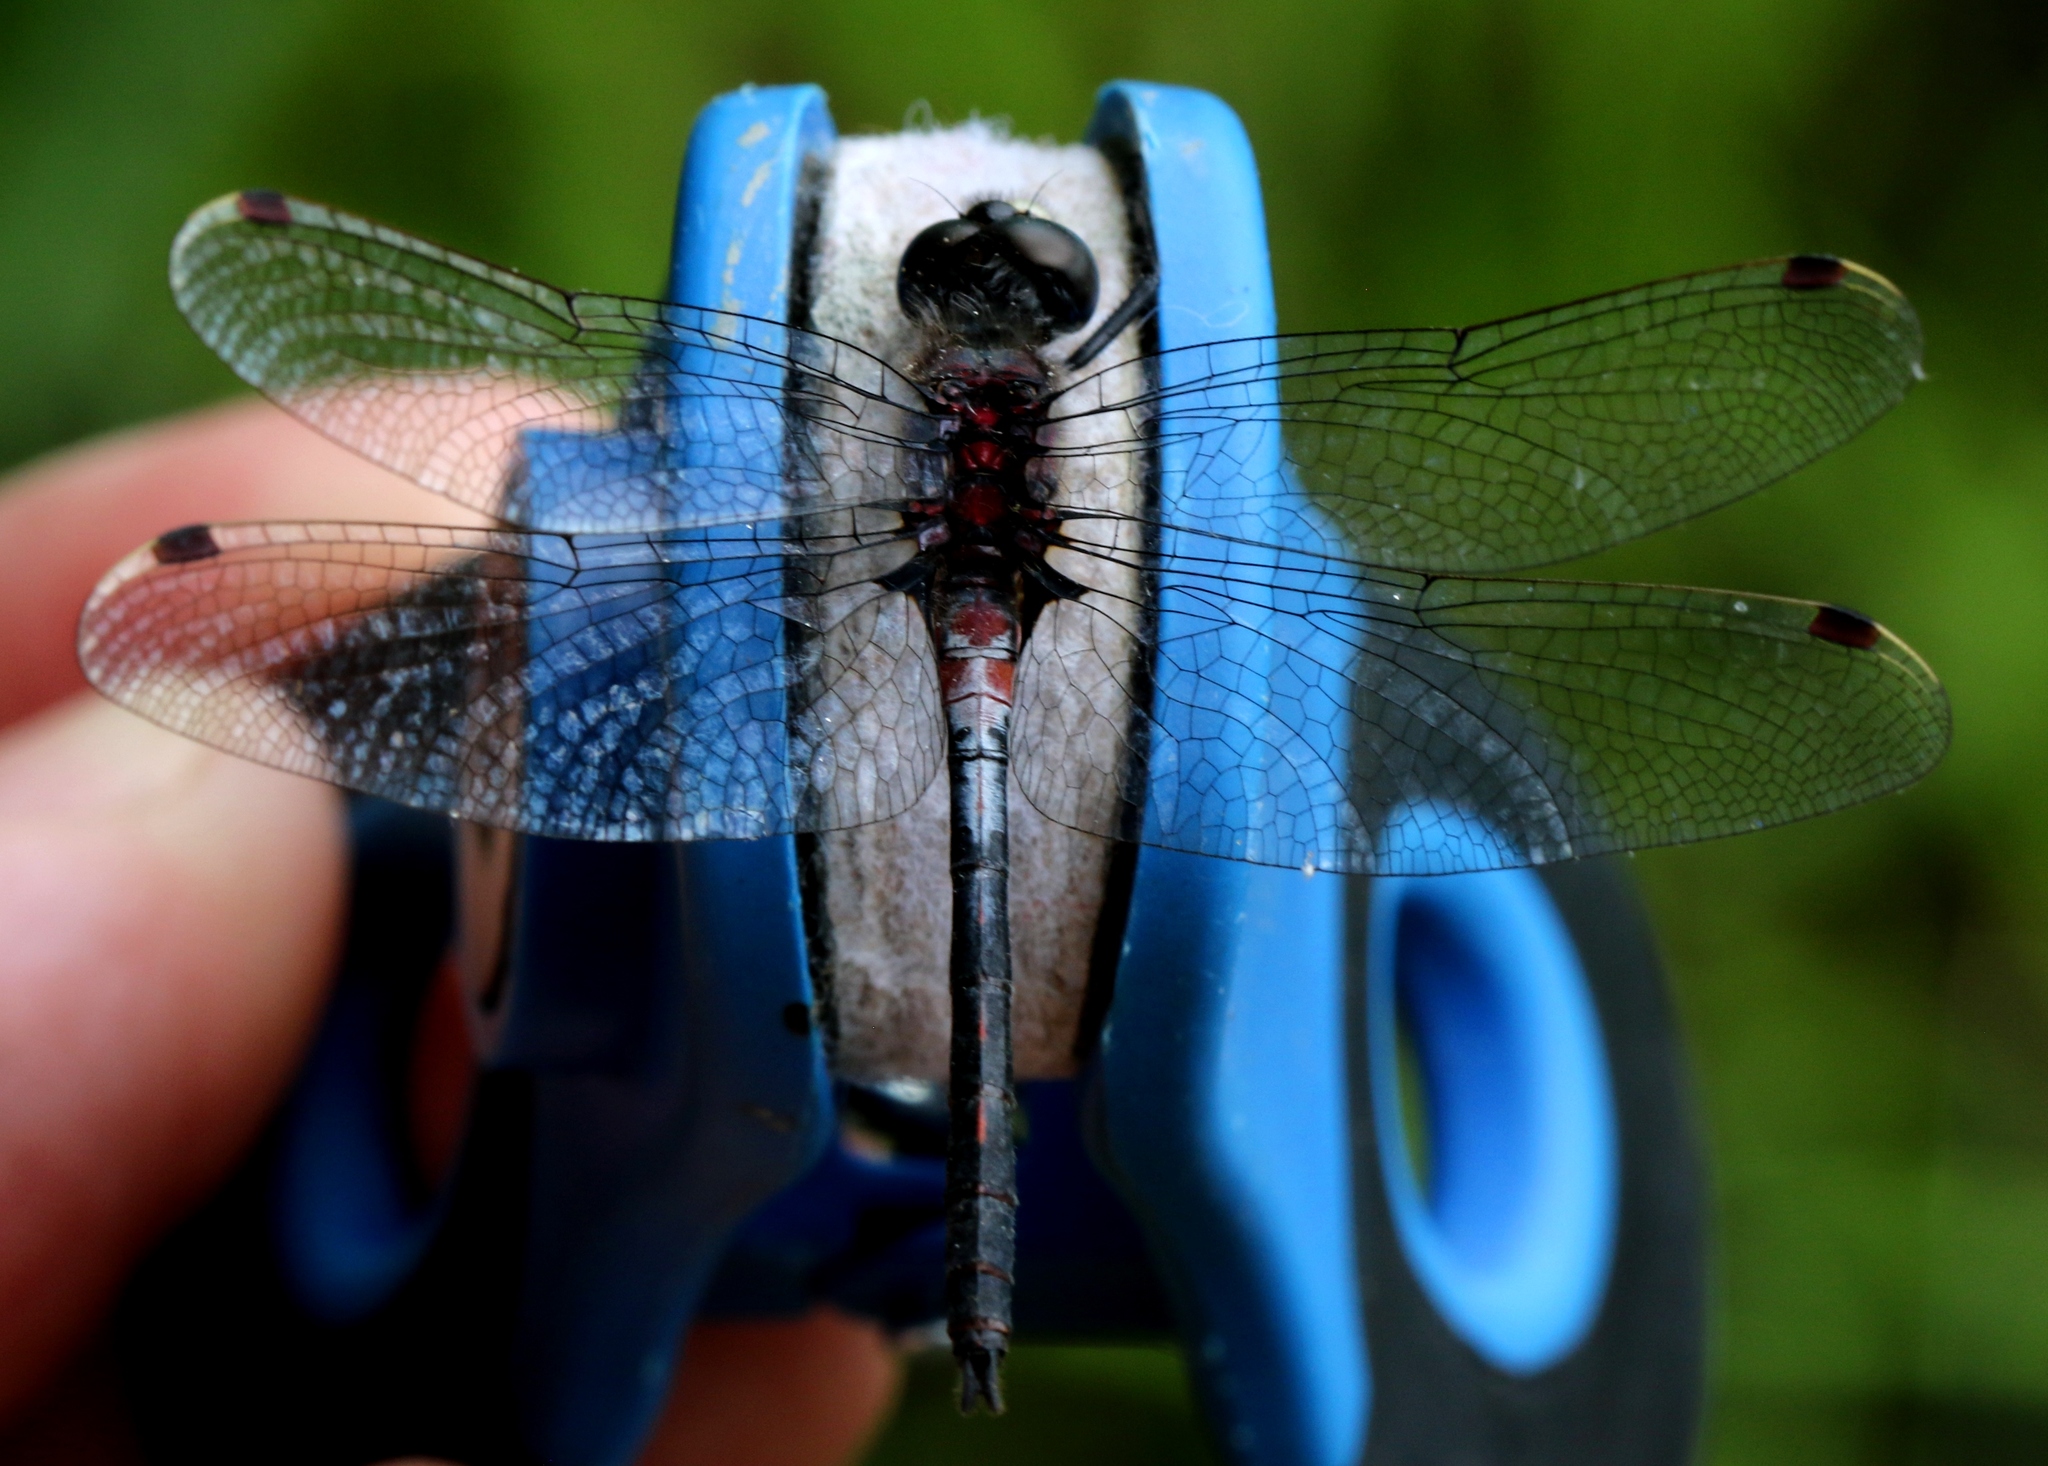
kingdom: Animalia
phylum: Arthropoda
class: Insecta
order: Odonata
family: Libellulidae
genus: Leucorrhinia
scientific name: Leucorrhinia proxima
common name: Belted whiteface
